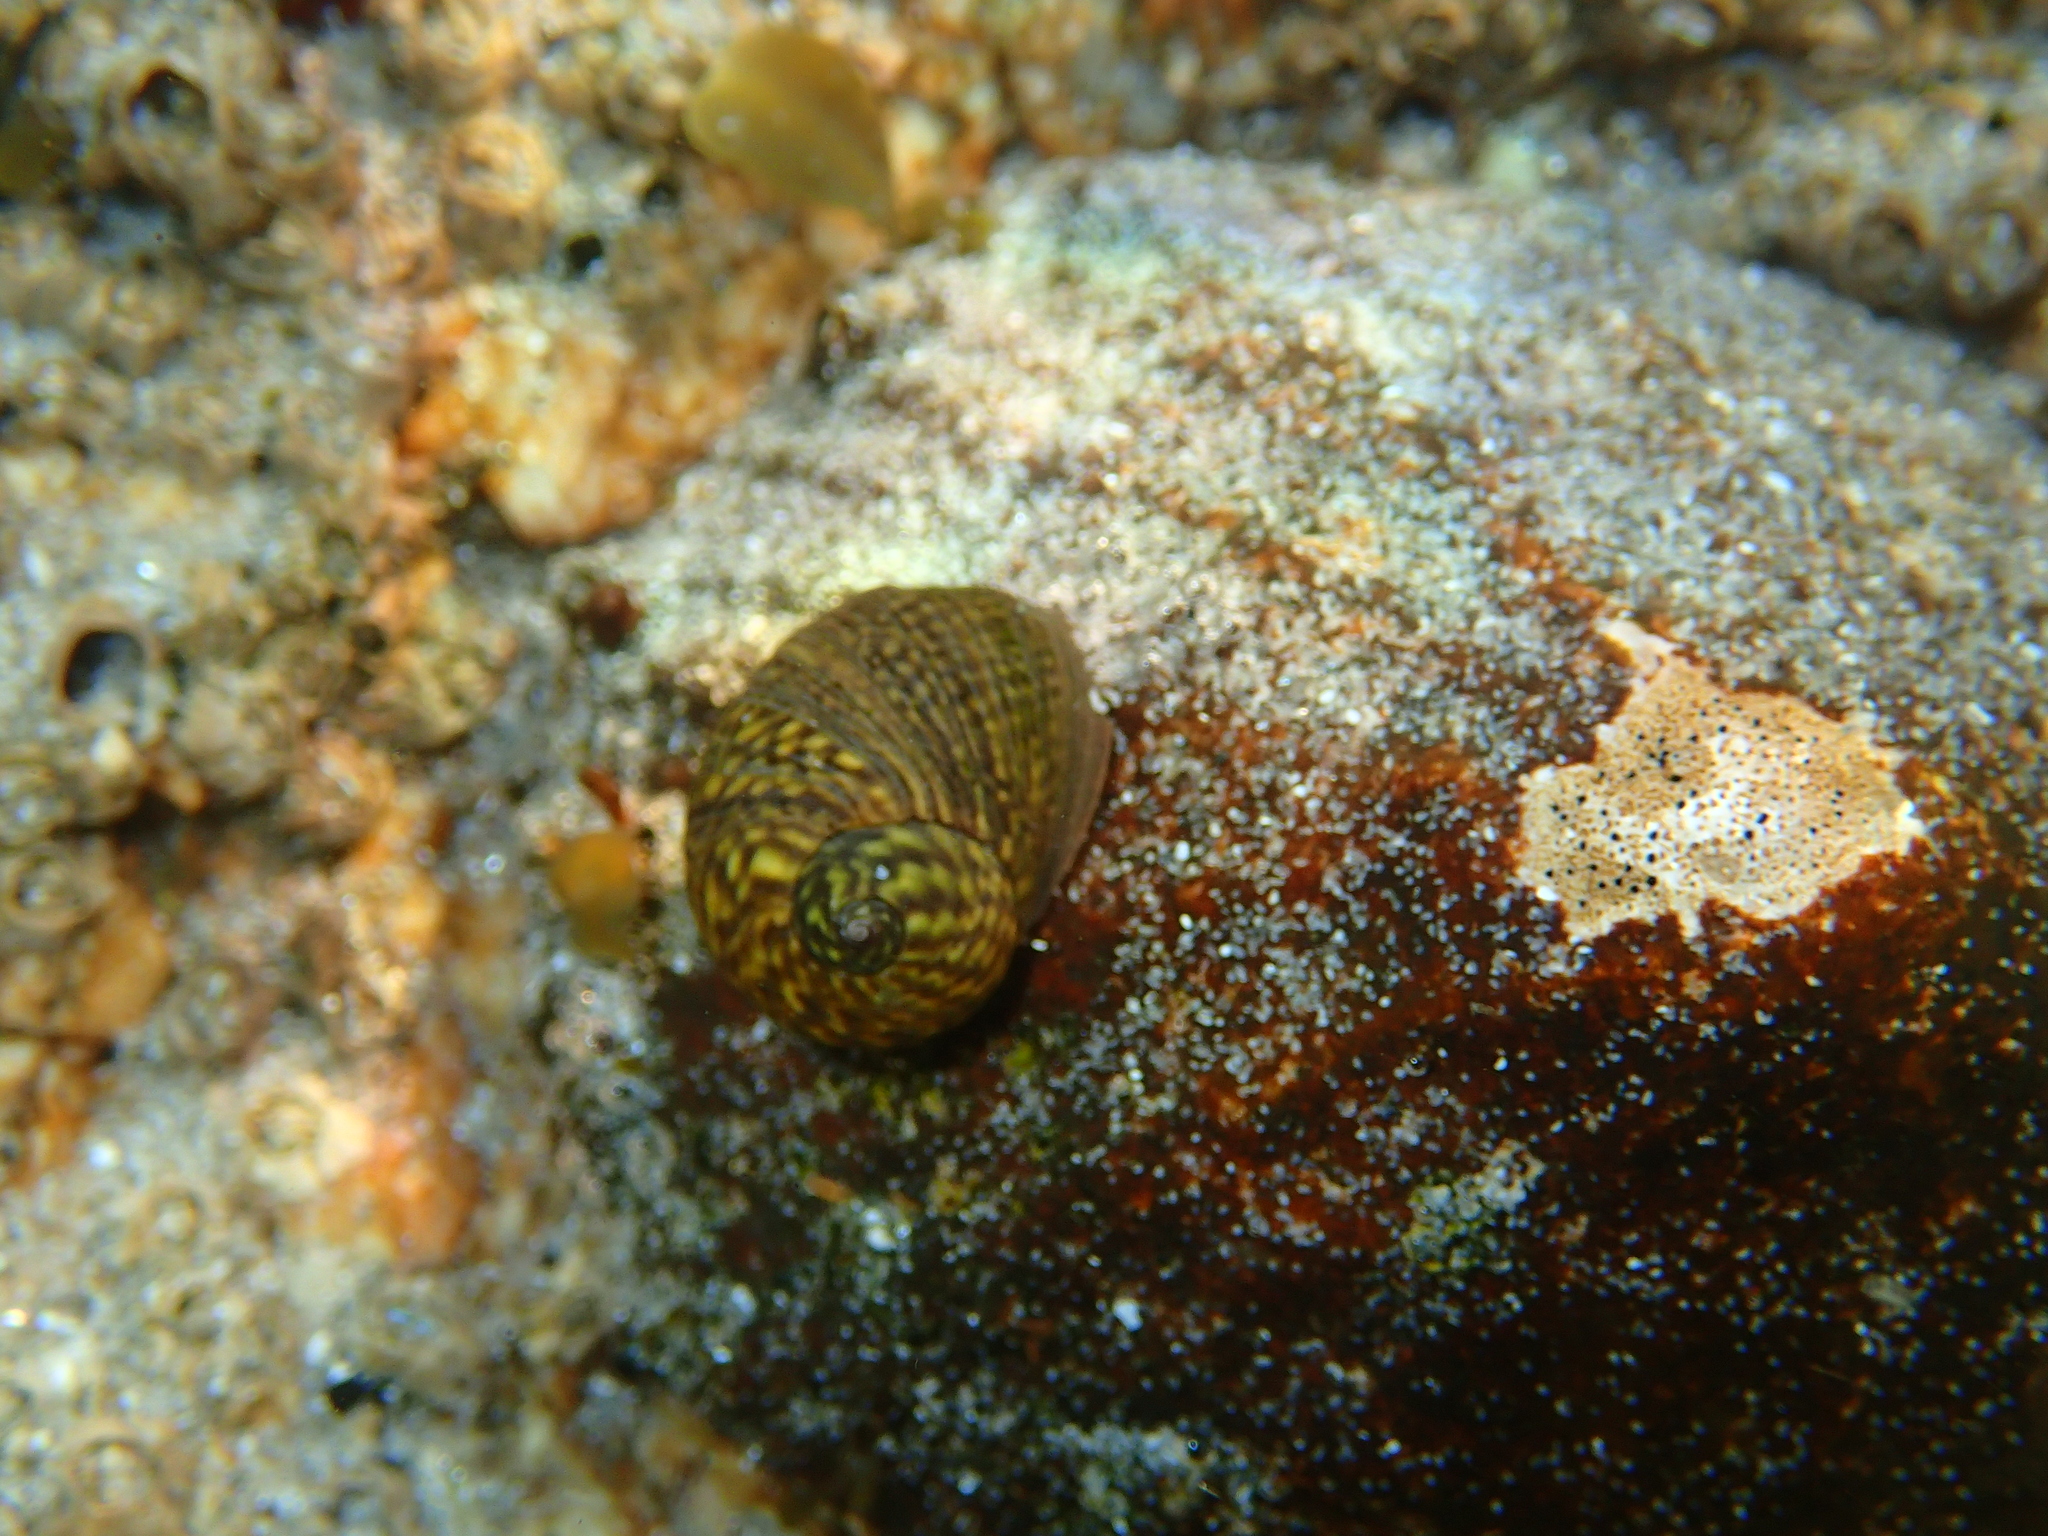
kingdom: Animalia
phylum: Mollusca
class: Gastropoda
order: Littorinimorpha
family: Littorinidae
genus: Littorina
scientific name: Littorina obtusata
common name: Flat periwinkle
